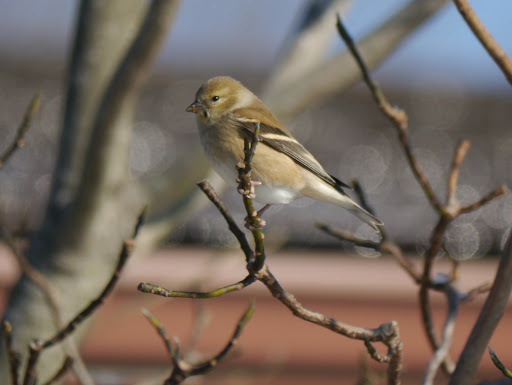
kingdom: Animalia
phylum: Chordata
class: Aves
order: Passeriformes
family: Fringillidae
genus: Spinus
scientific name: Spinus tristis
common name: American goldfinch
